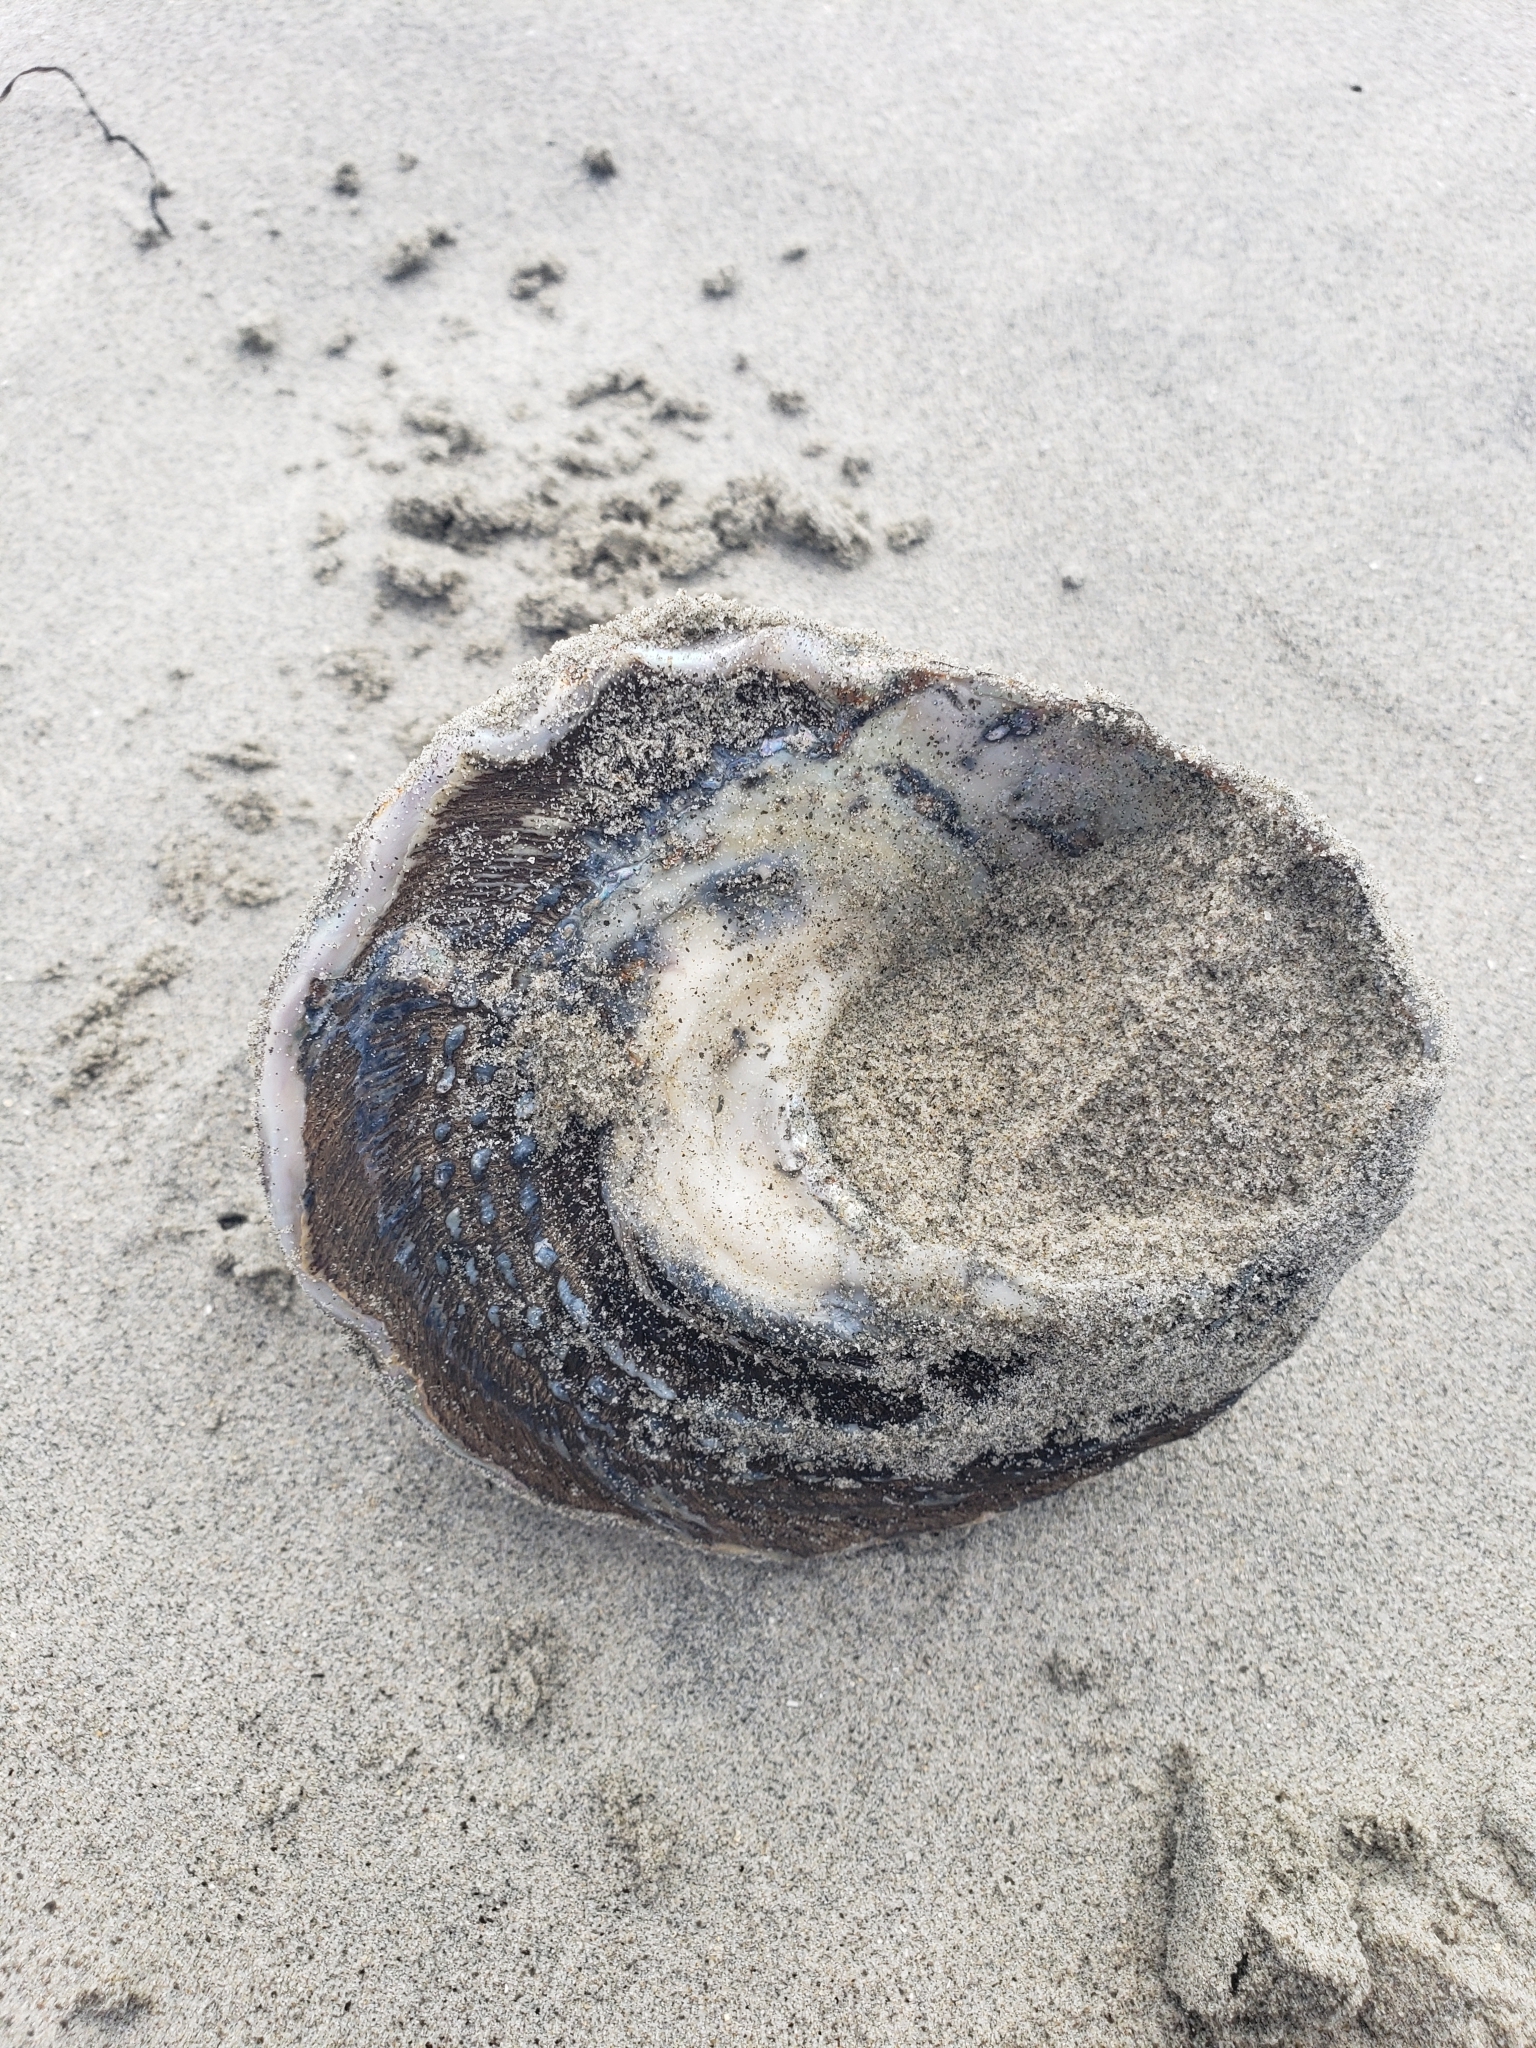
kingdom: Animalia
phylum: Mollusca
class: Gastropoda
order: Trochida
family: Turbinidae
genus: Megastraea
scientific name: Megastraea undosa
